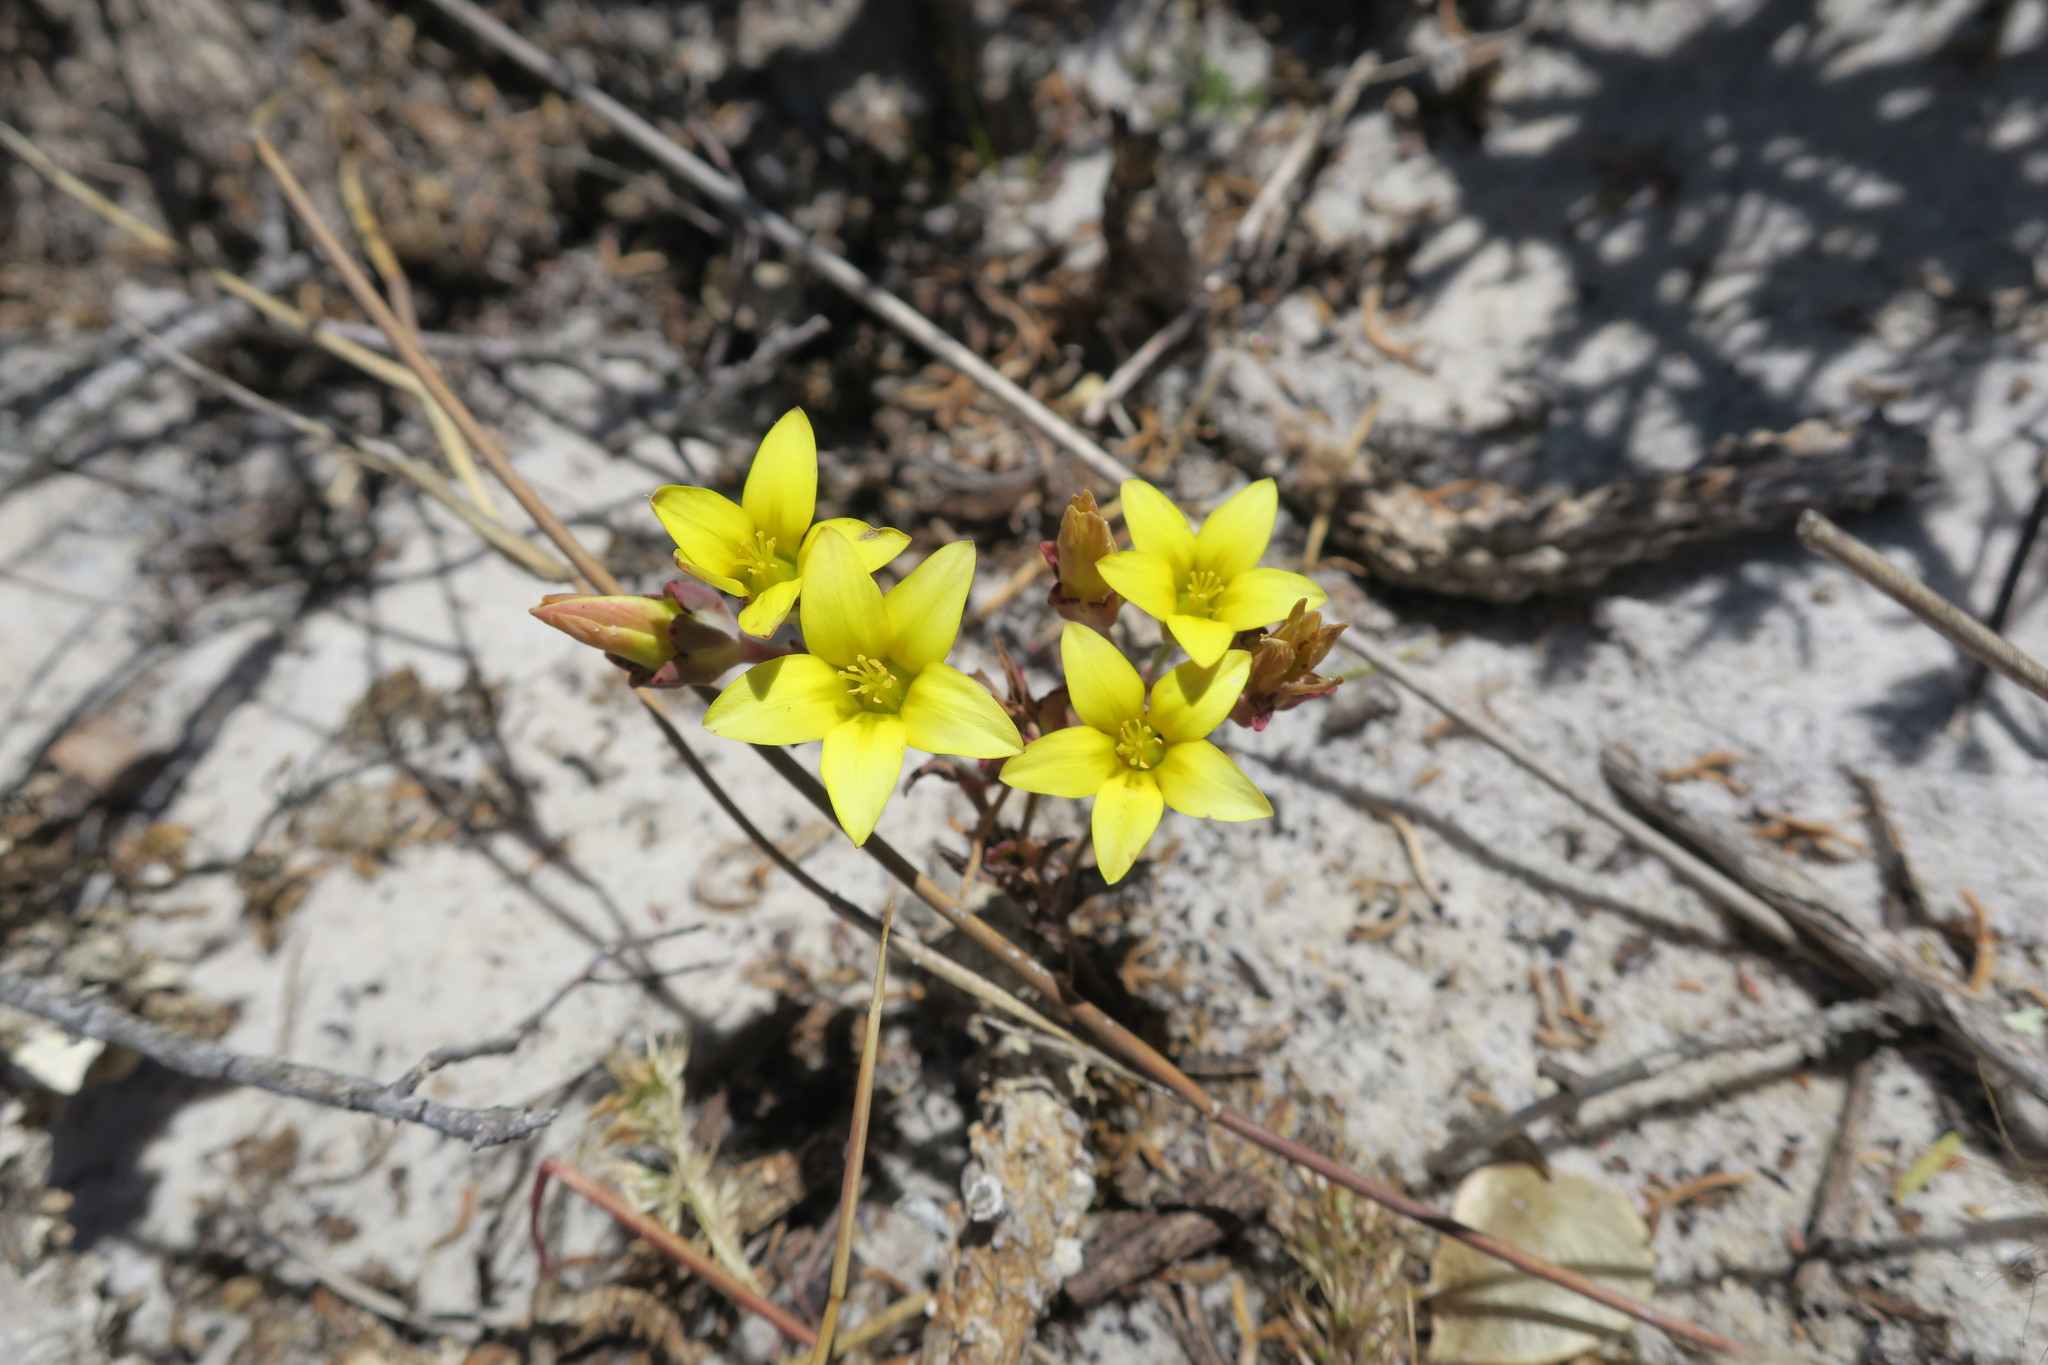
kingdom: Plantae
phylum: Tracheophyta
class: Magnoliopsida
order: Saxifragales
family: Crassulaceae
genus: Crassula
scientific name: Crassula dichotoma
